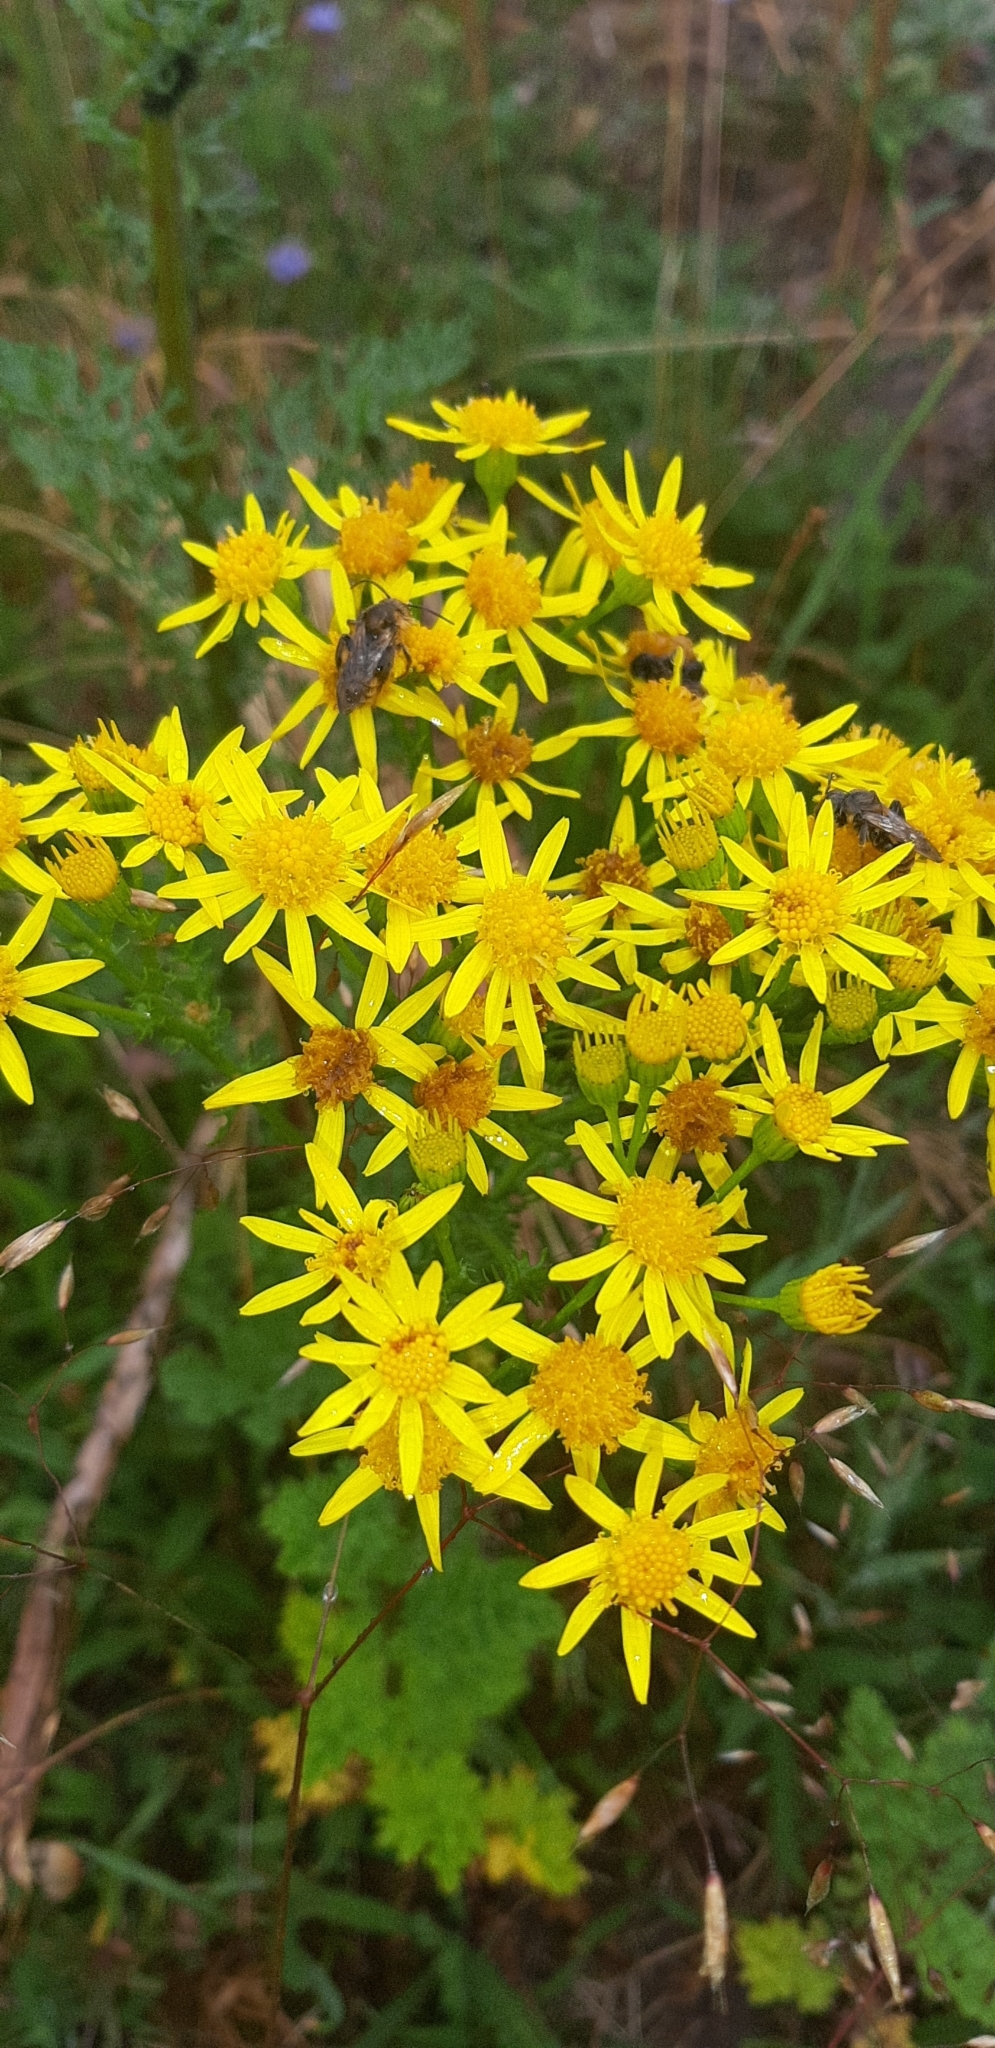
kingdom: Plantae
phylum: Tracheophyta
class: Magnoliopsida
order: Asterales
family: Asteraceae
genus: Jacobaea
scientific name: Jacobaea vulgaris
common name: Stinking willie
